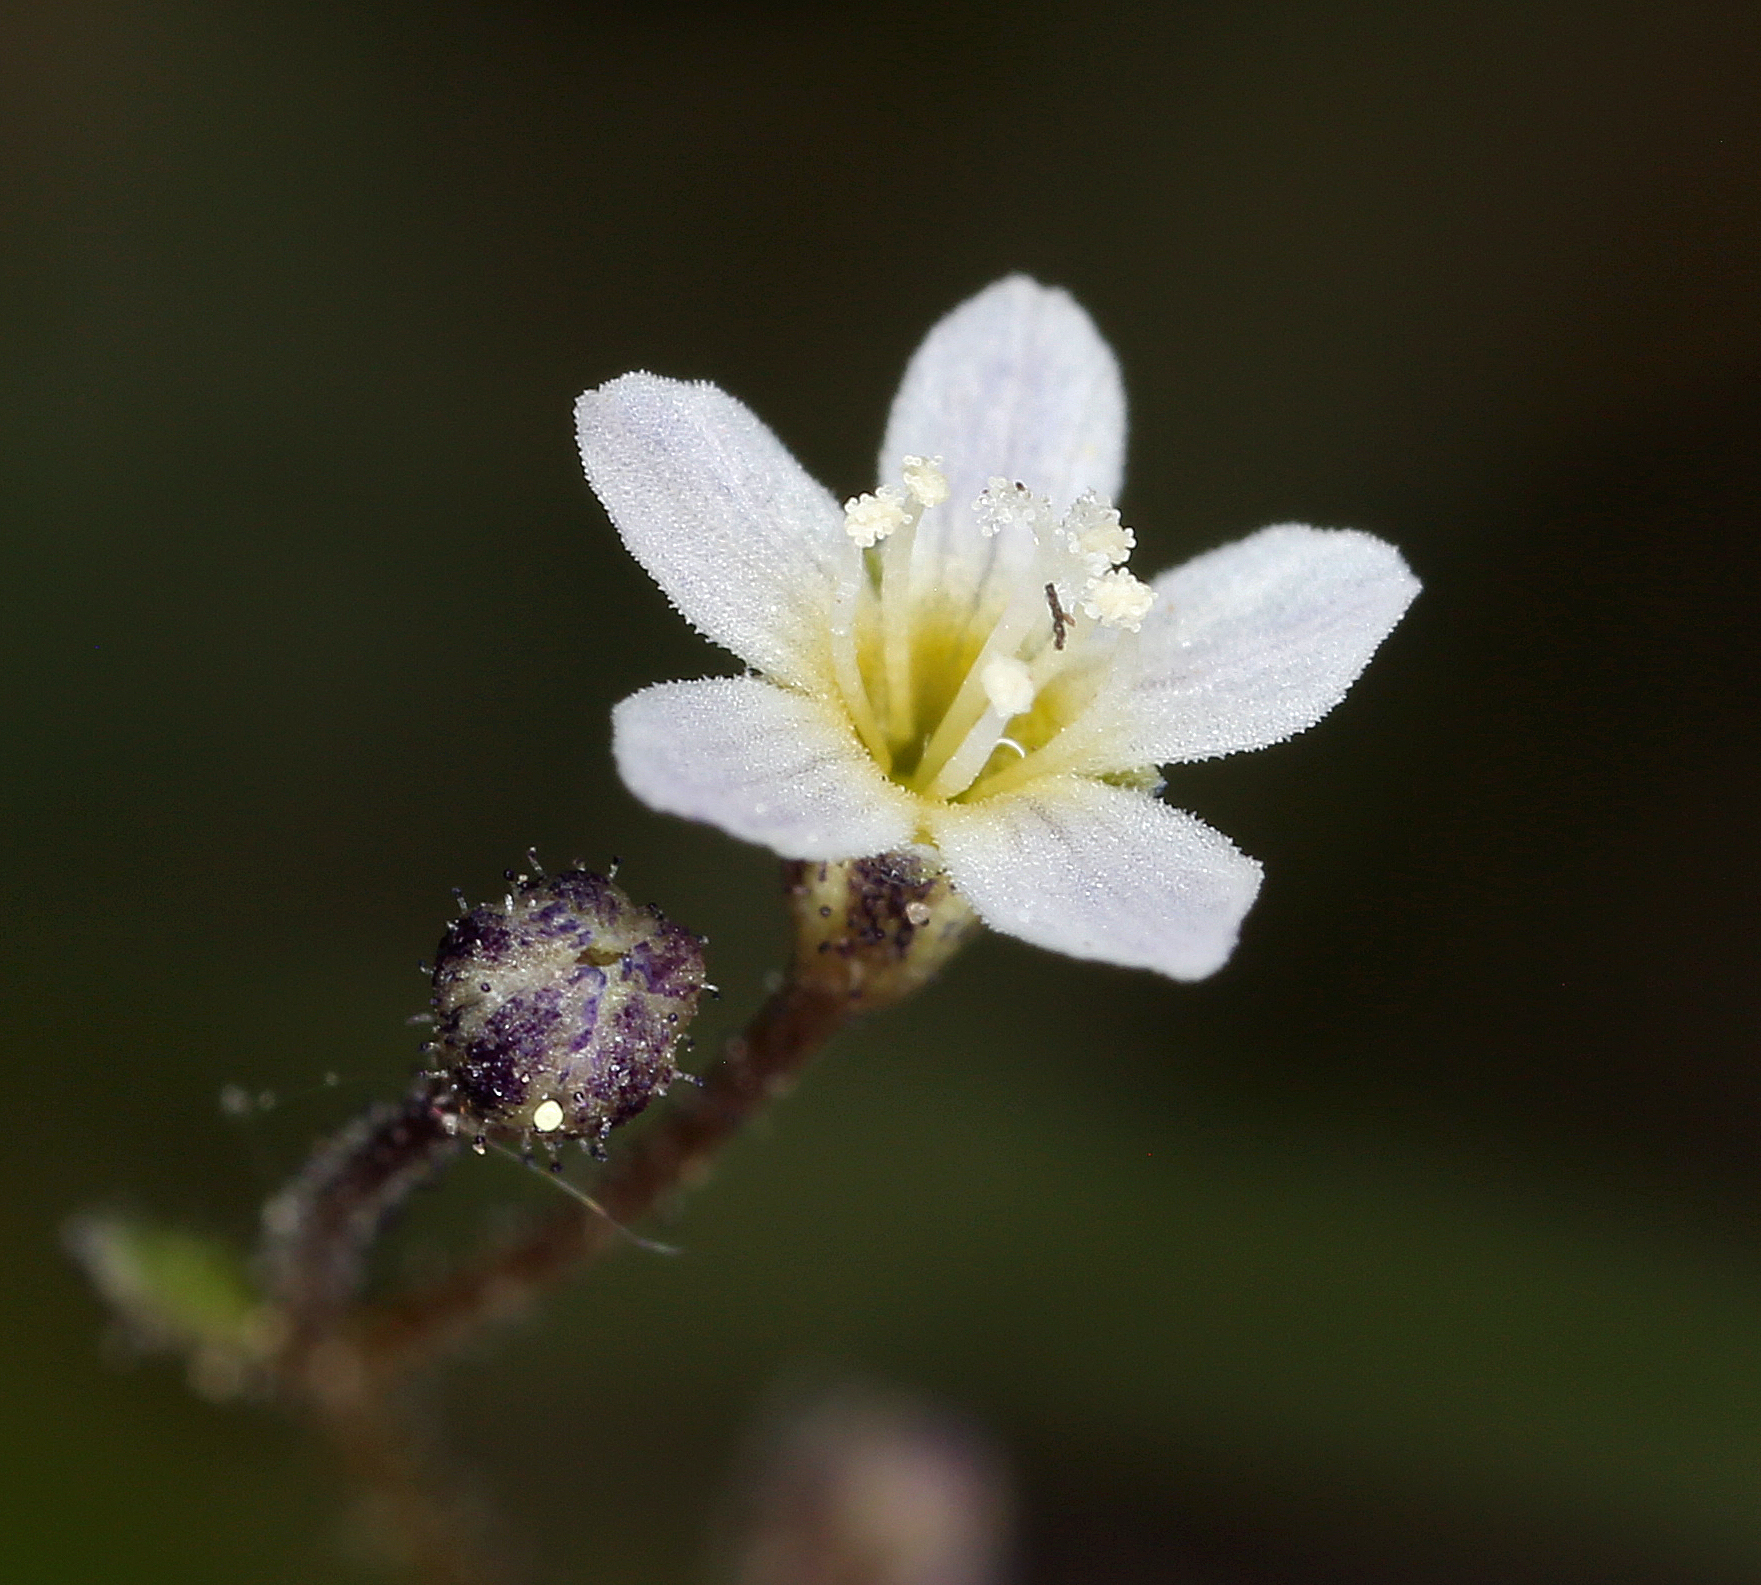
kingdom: Plantae
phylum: Tracheophyta
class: Magnoliopsida
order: Ericales
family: Polemoniaceae
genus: Lathrocasis
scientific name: Lathrocasis tenerrima
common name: Delicate gilia
